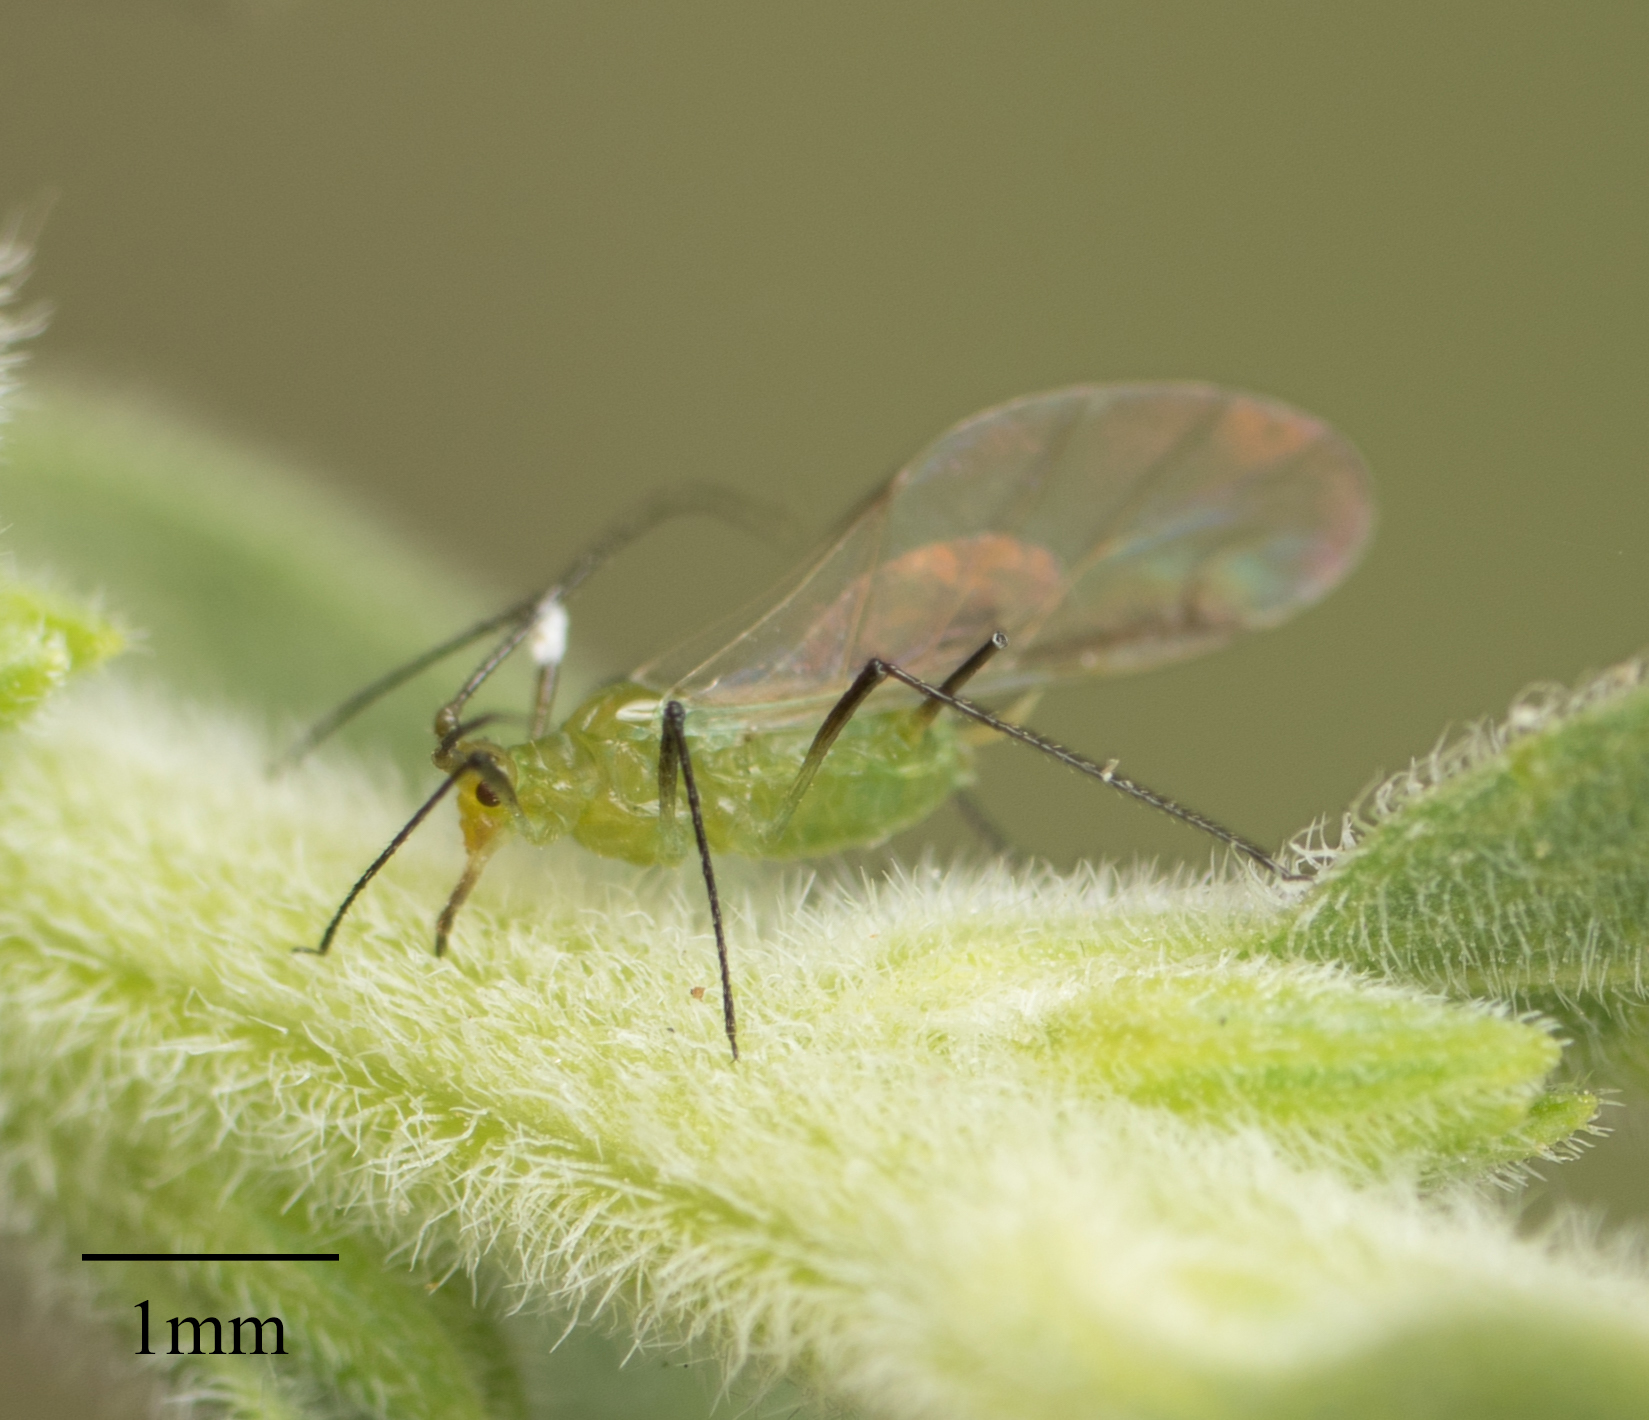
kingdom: Animalia
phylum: Arthropoda
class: Insecta
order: Hemiptera
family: Aphididae
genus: Uroleucon
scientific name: Uroleucon erigeronense
